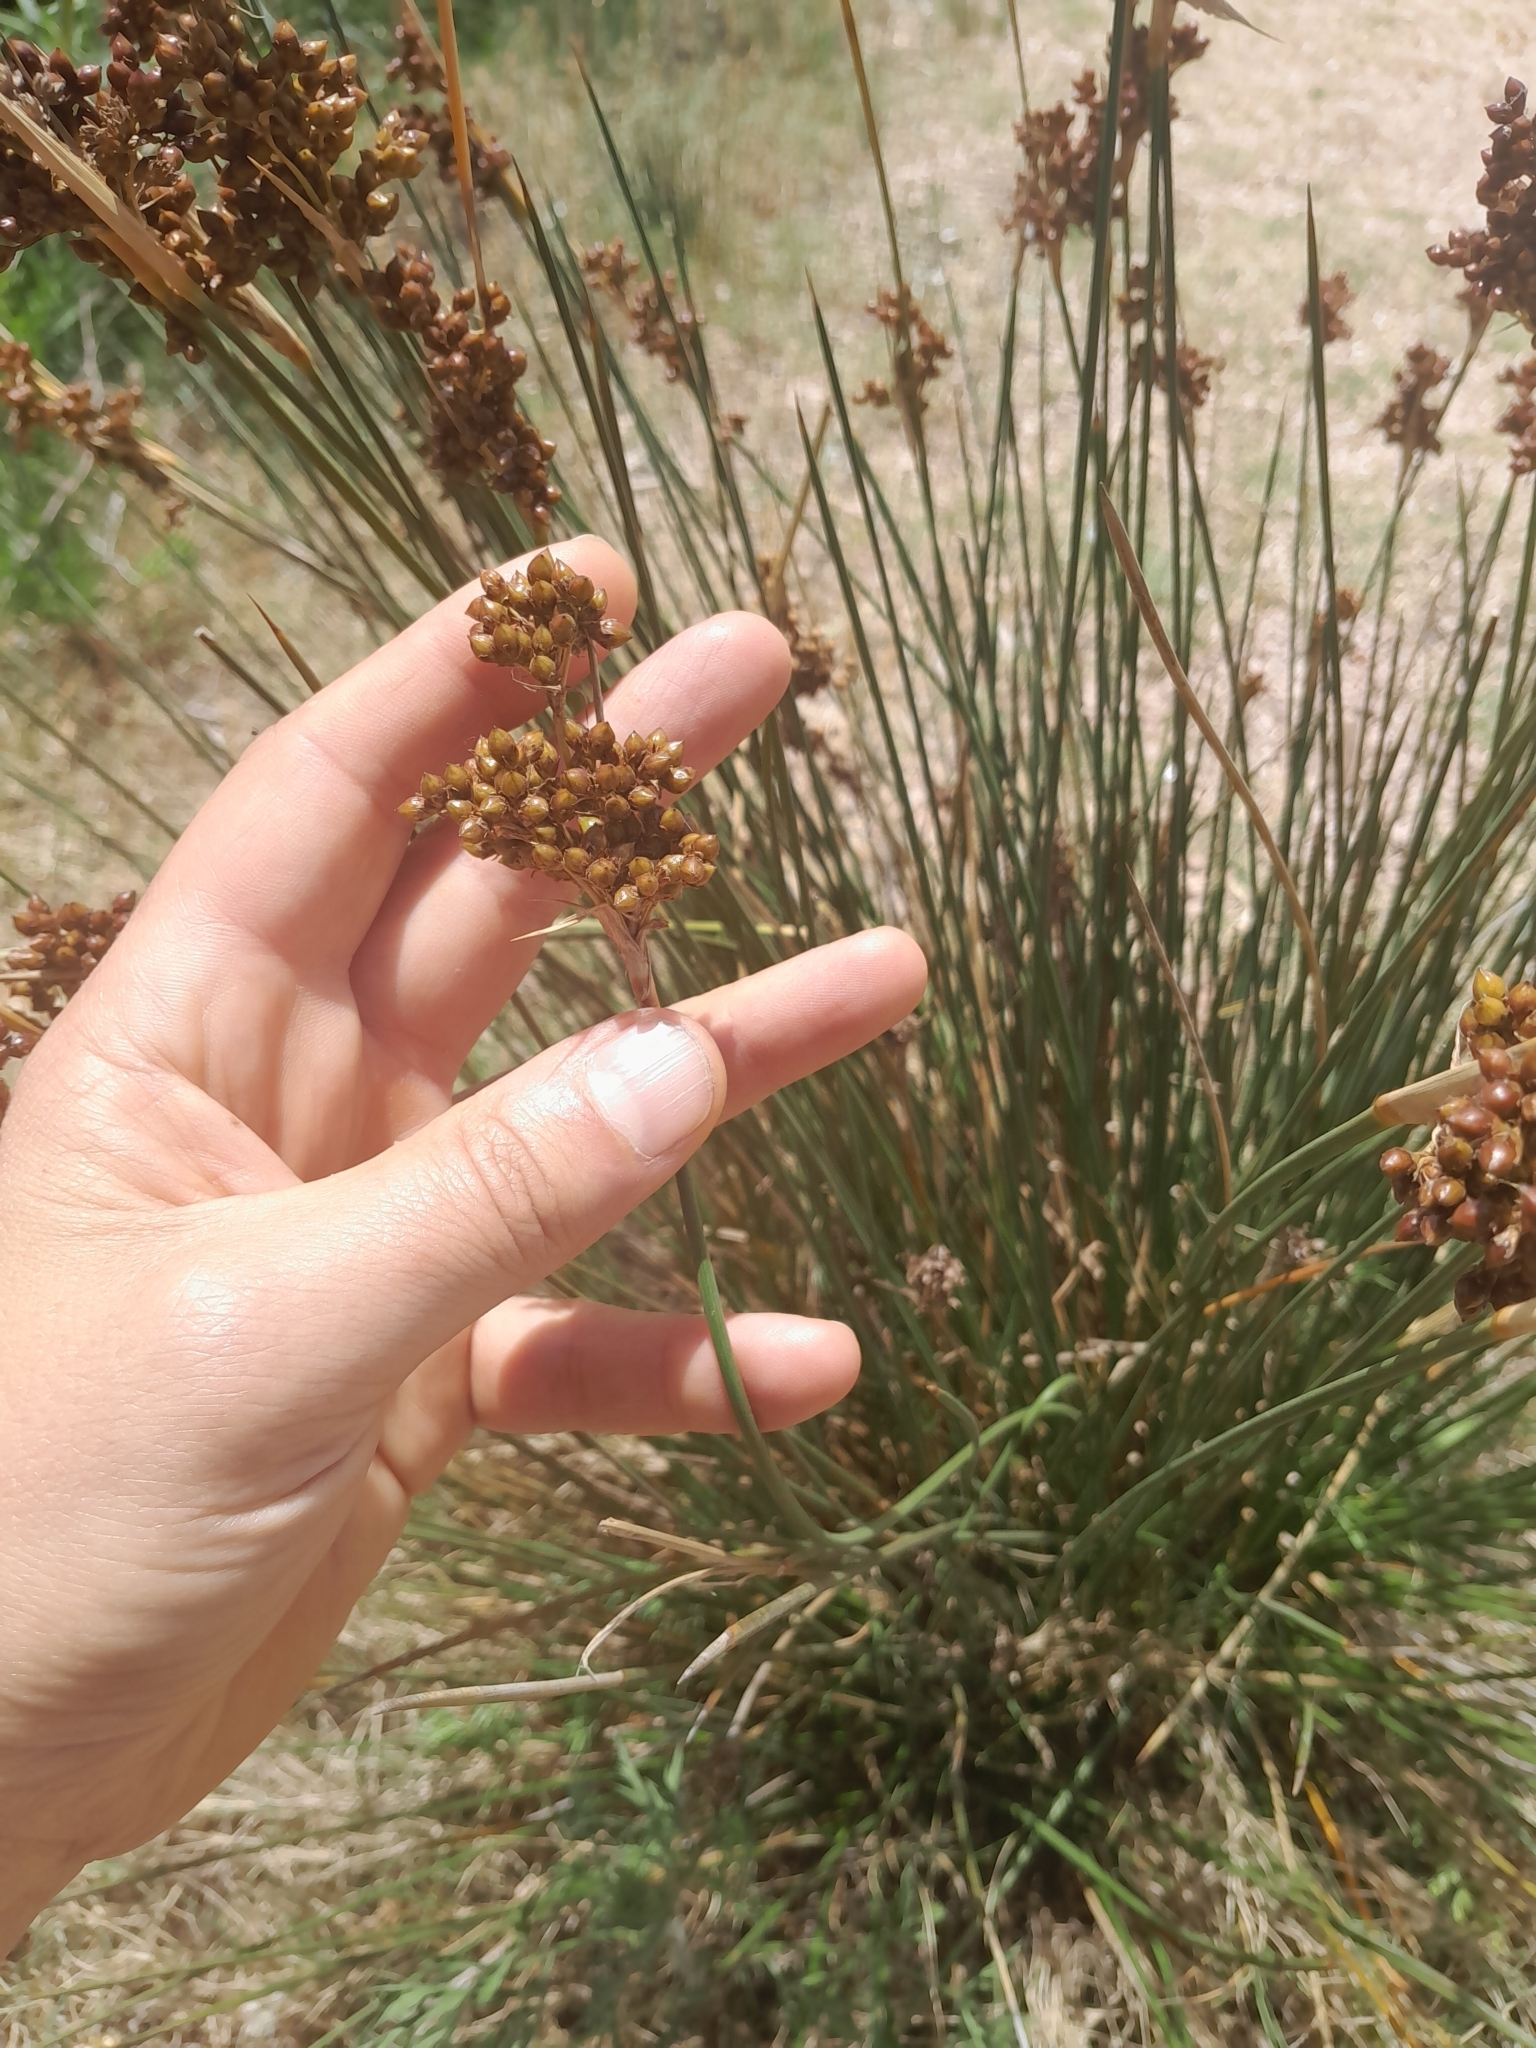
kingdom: Plantae
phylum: Tracheophyta
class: Liliopsida
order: Poales
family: Juncaceae
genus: Juncus
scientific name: Juncus acutus
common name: Sharp rush
